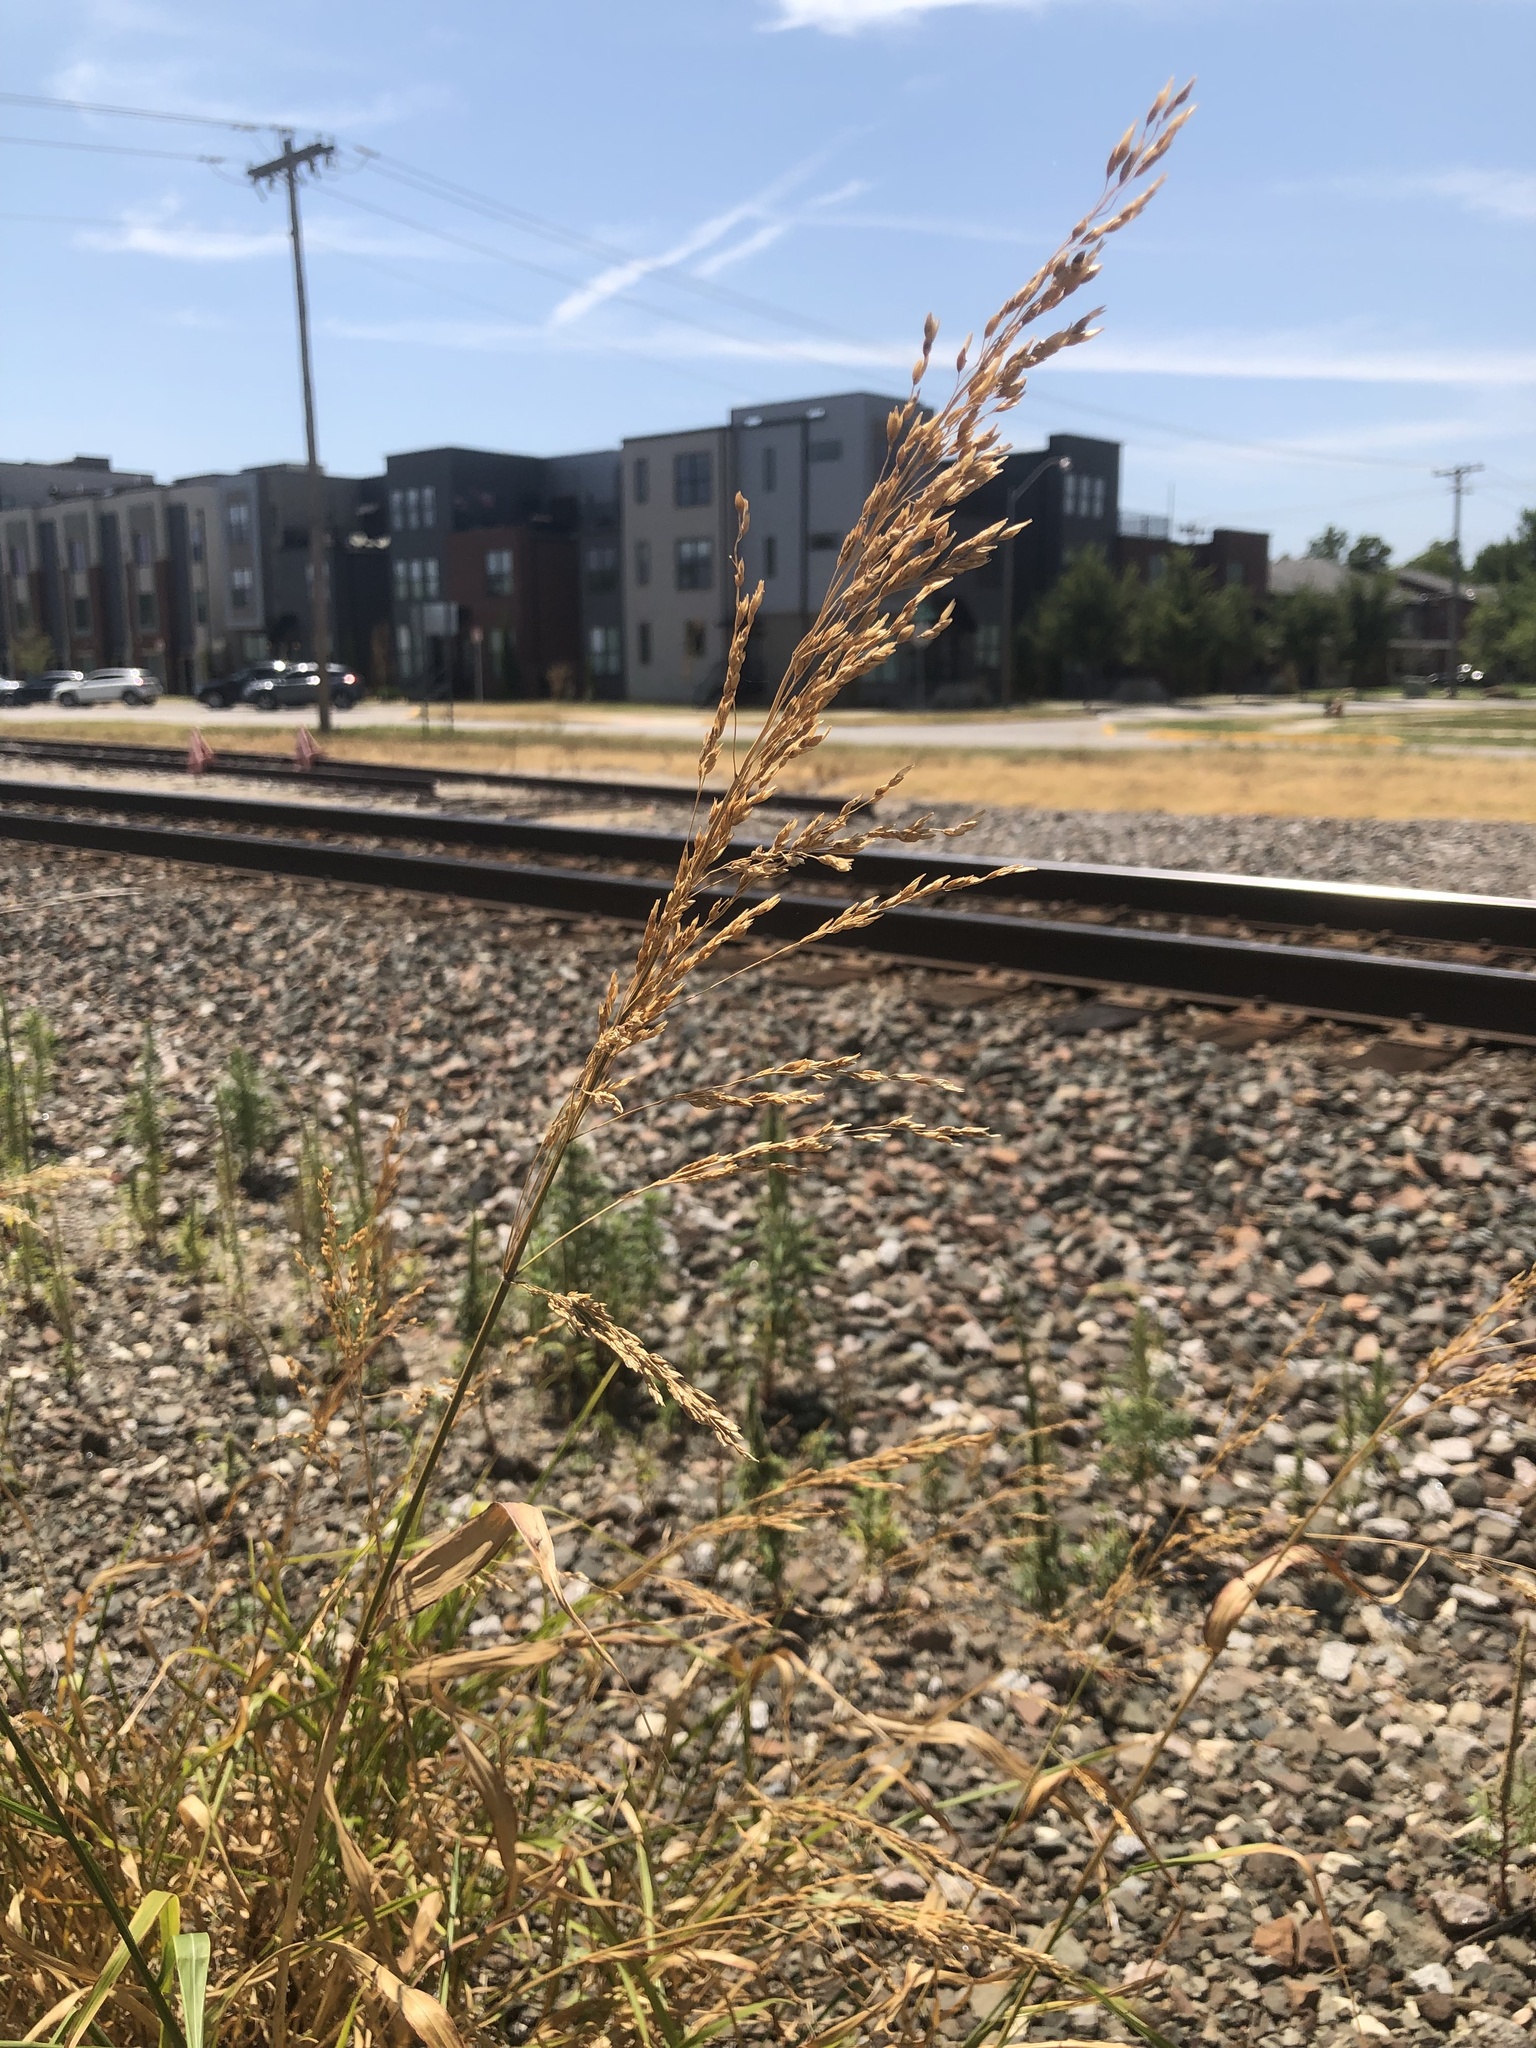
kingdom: Plantae
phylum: Tracheophyta
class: Liliopsida
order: Poales
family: Poaceae
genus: Sorghum
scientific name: Sorghum halepense
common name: Johnson-grass
